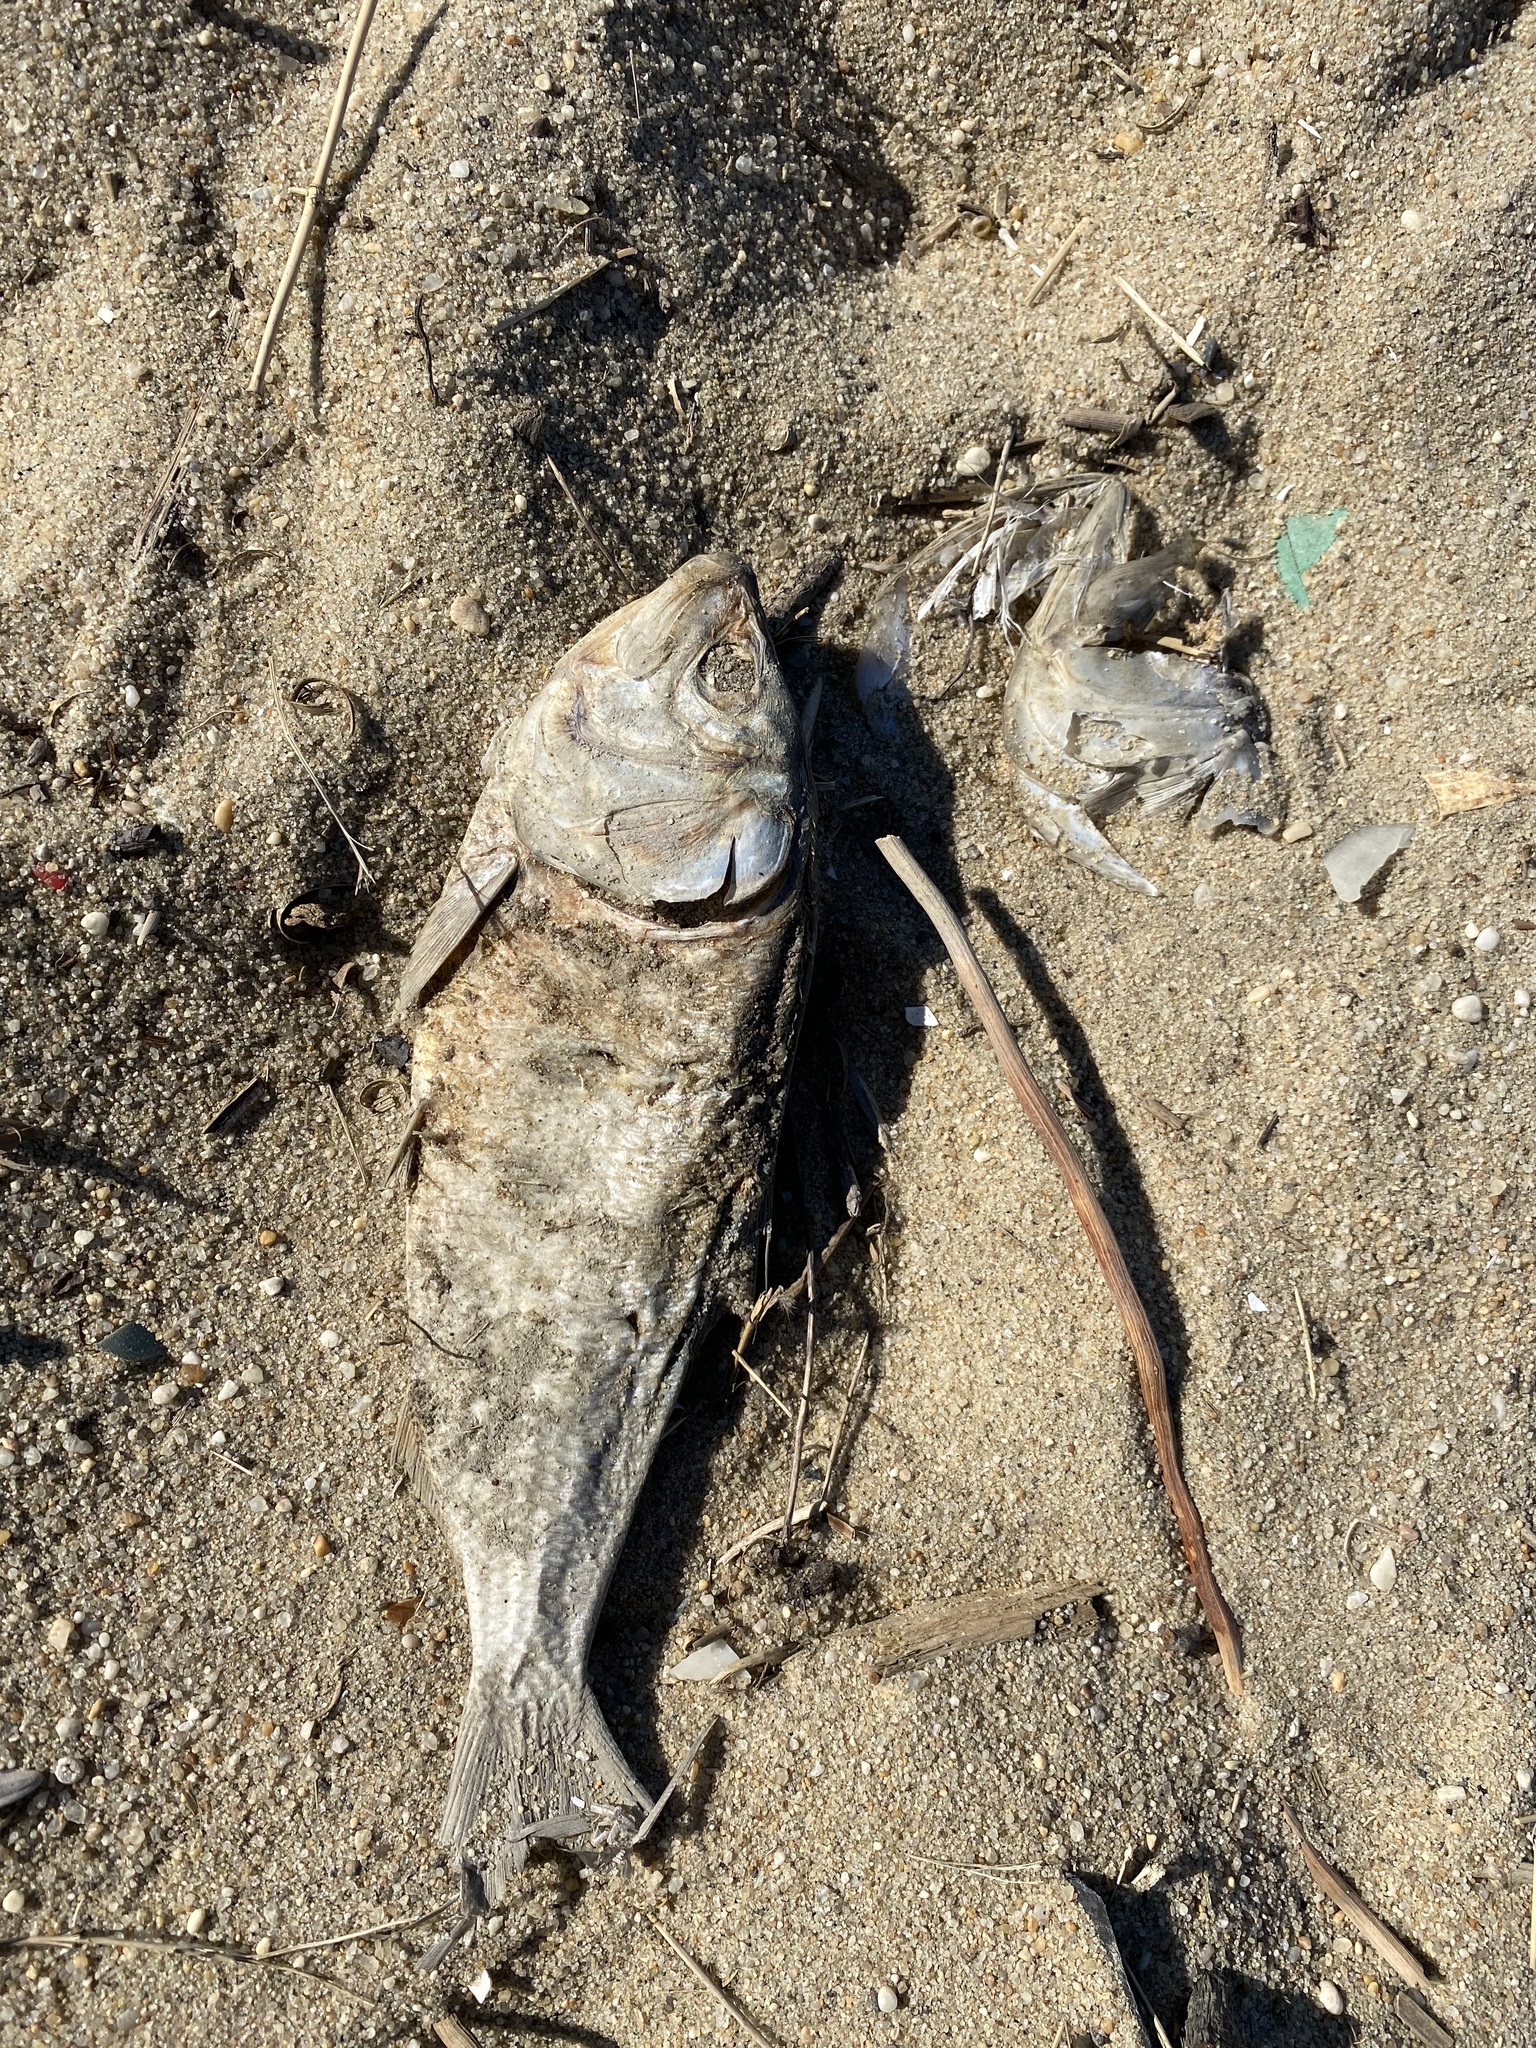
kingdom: Animalia
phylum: Chordata
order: Clupeiformes
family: Clupeidae
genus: Brevoortia
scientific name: Brevoortia tyrannus
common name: Atlantic menhaden
